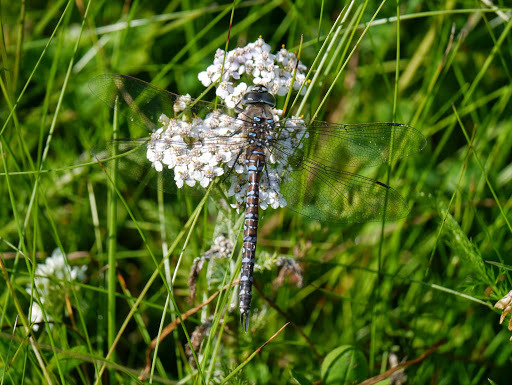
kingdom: Animalia
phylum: Arthropoda
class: Insecta
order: Odonata
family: Aeshnidae
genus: Aeshna
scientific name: Aeshna interrupta
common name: Variable darner
